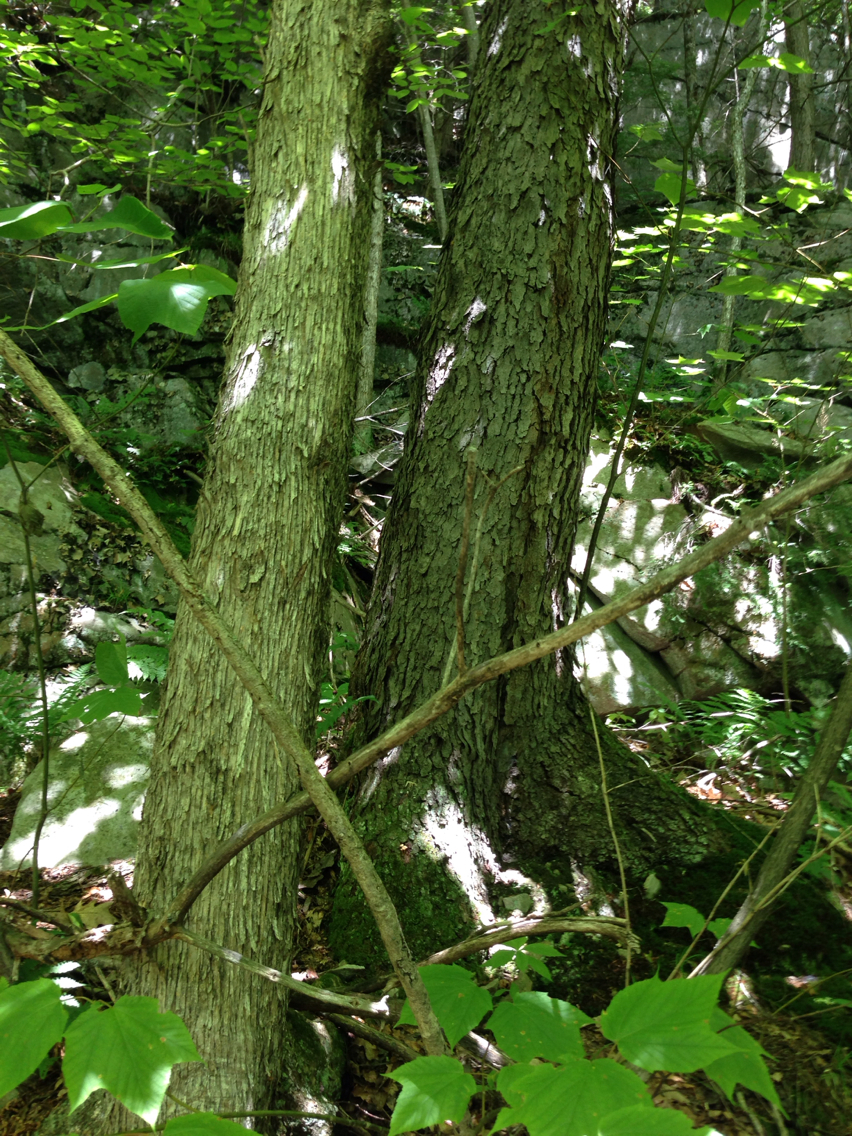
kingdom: Plantae
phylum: Tracheophyta
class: Magnoliopsida
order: Fagales
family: Betulaceae
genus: Ostrya
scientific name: Ostrya virginiana
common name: Ironwood
